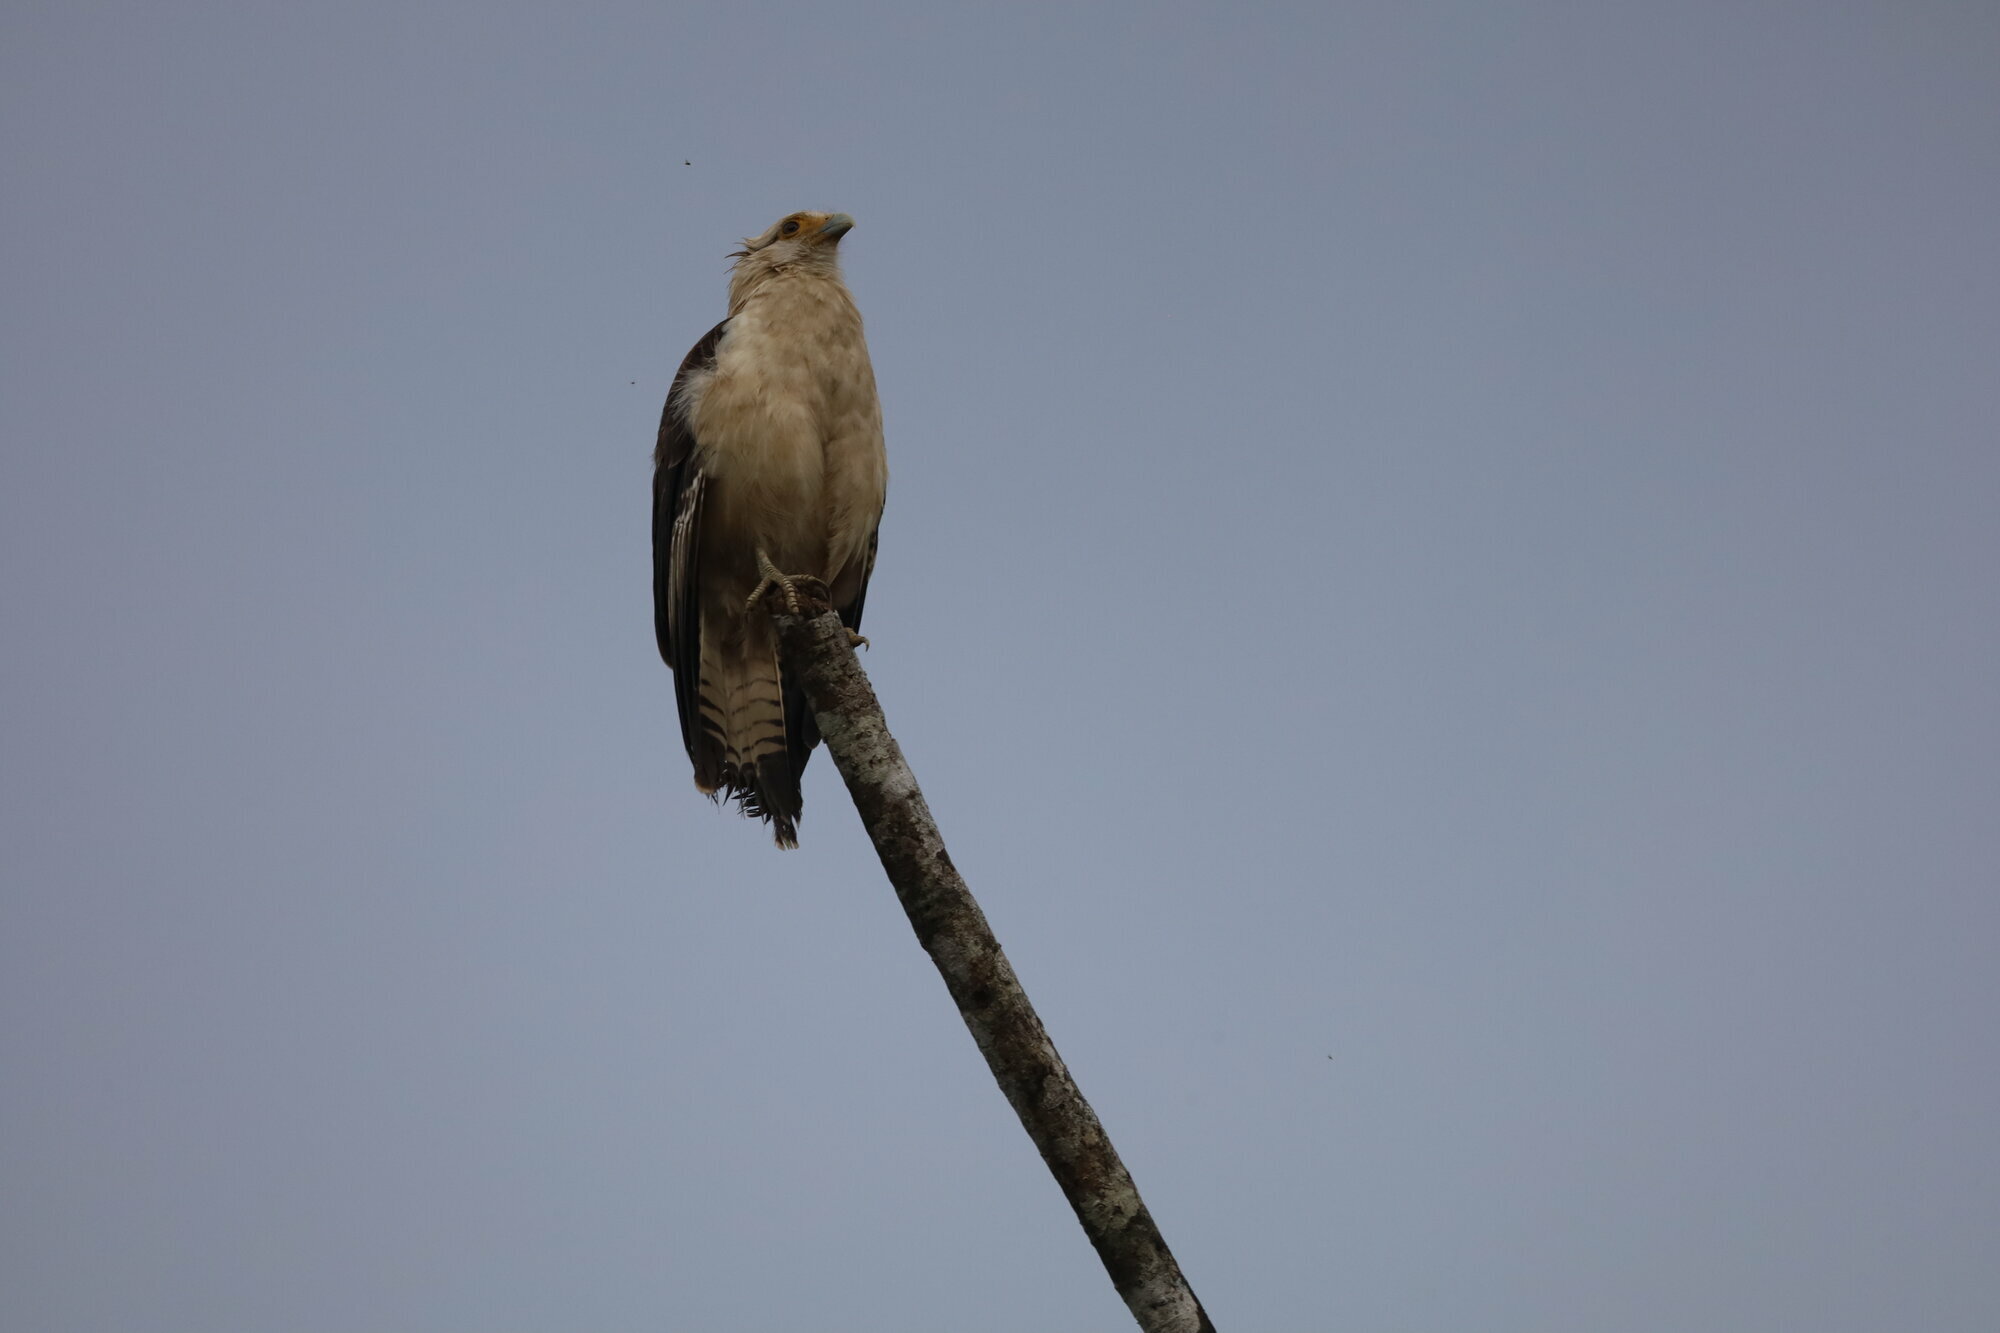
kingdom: Animalia
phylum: Chordata
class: Aves
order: Falconiformes
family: Falconidae
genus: Daptrius
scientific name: Daptrius
